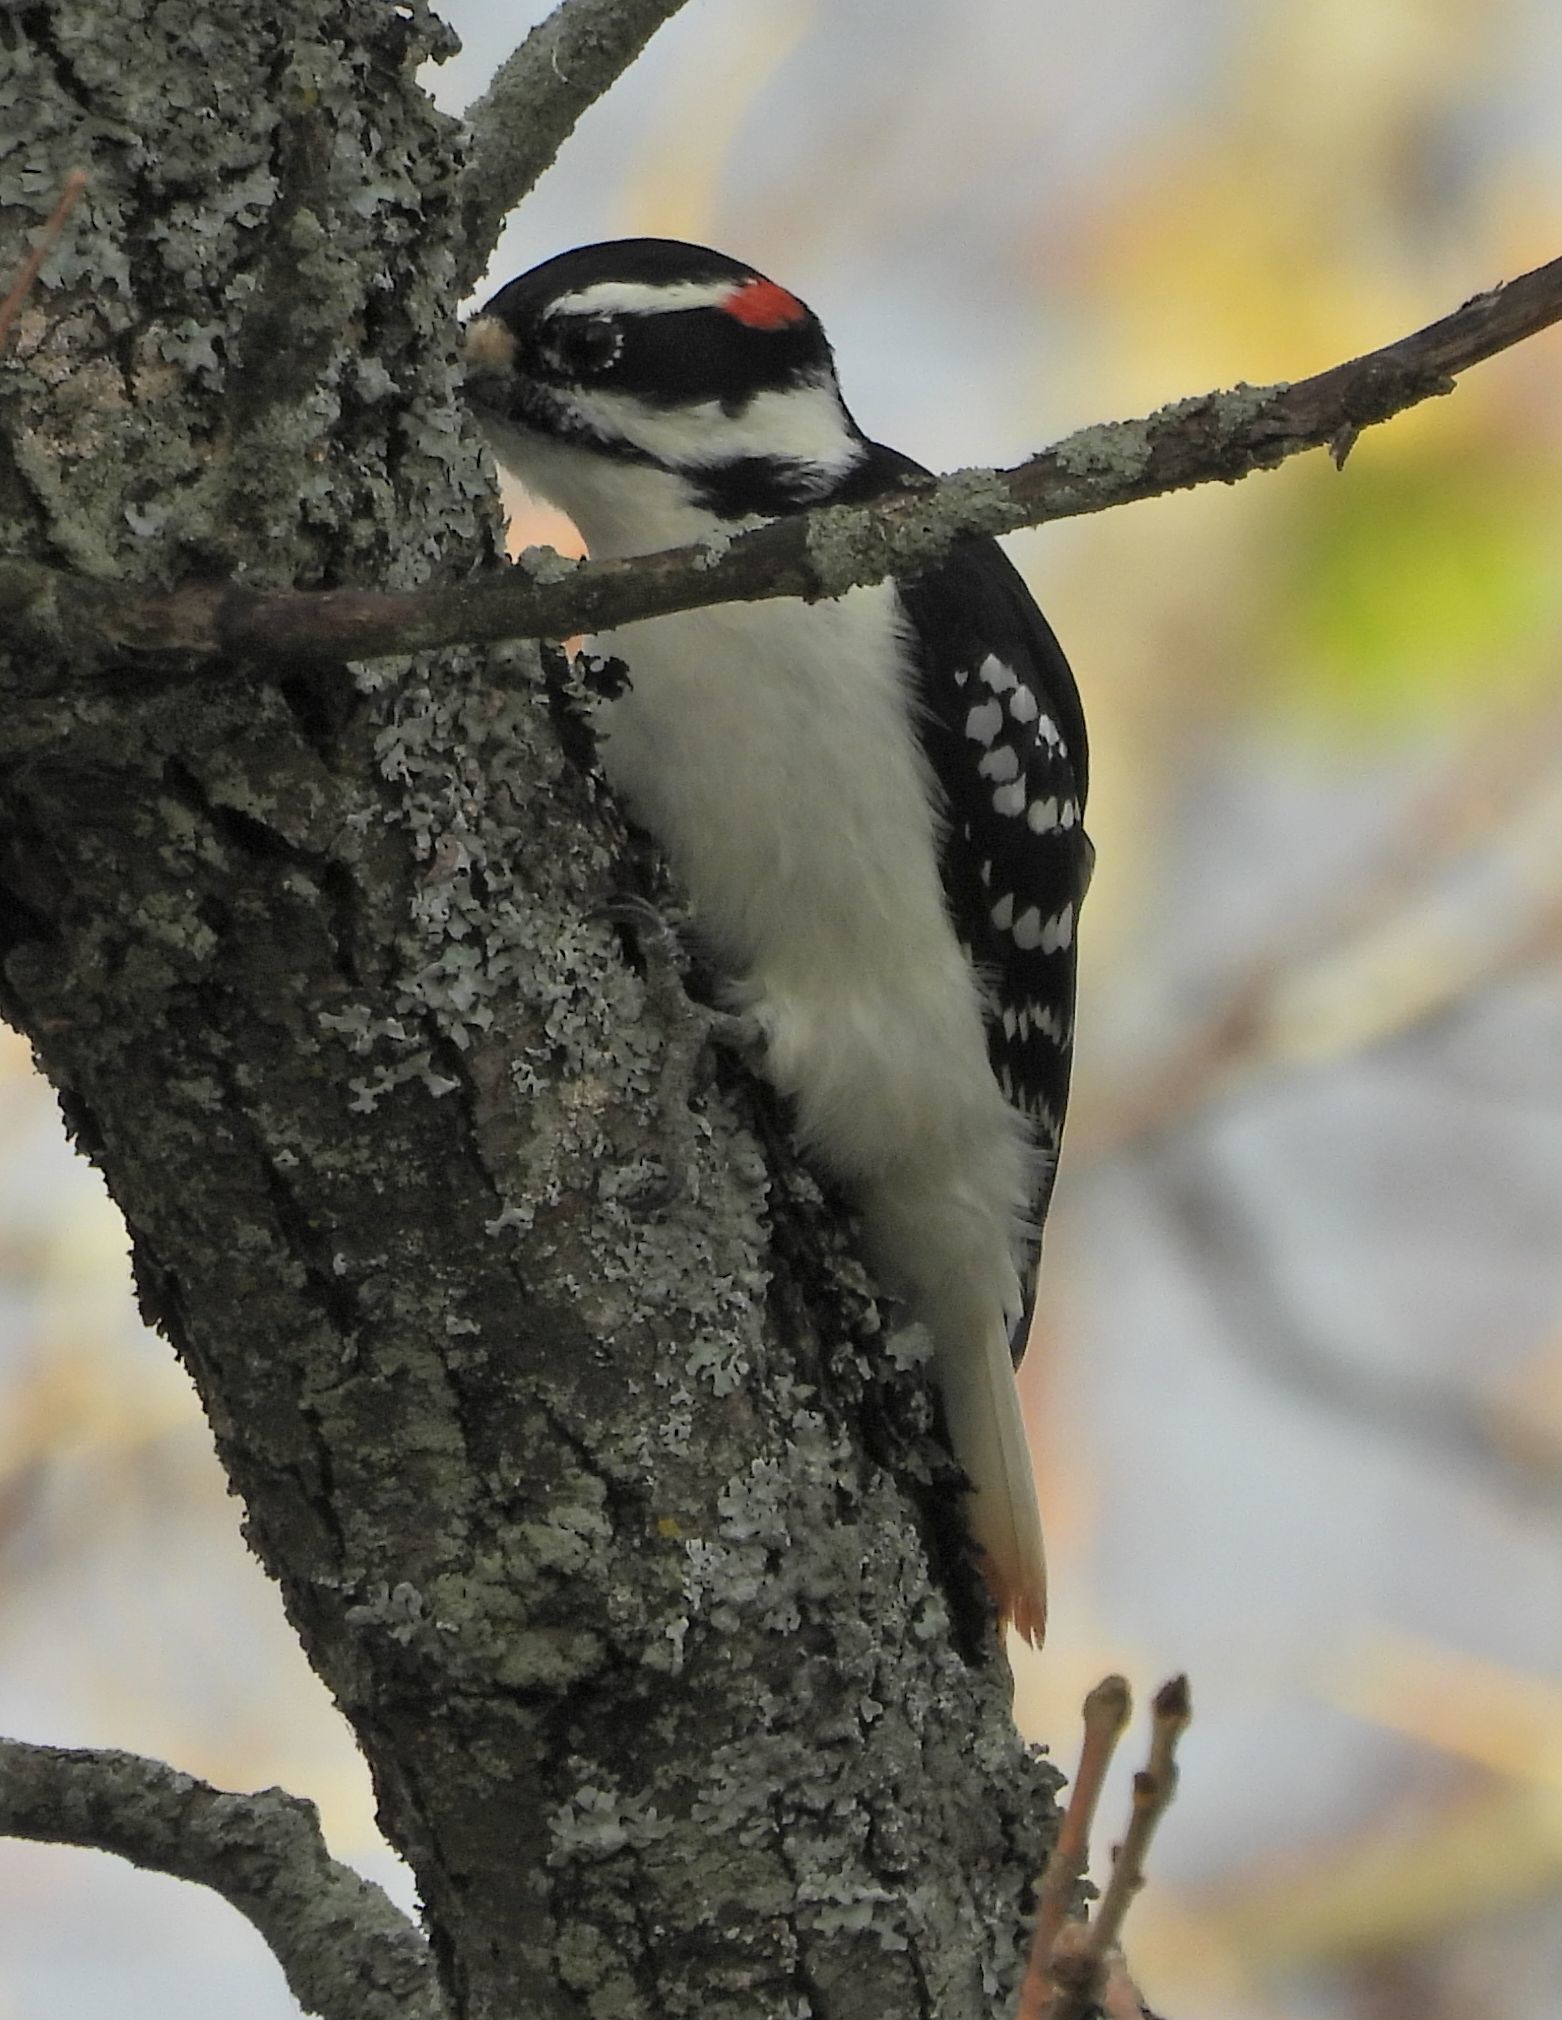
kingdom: Animalia
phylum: Chordata
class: Aves
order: Piciformes
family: Picidae
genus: Leuconotopicus
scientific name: Leuconotopicus villosus
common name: Hairy woodpecker
